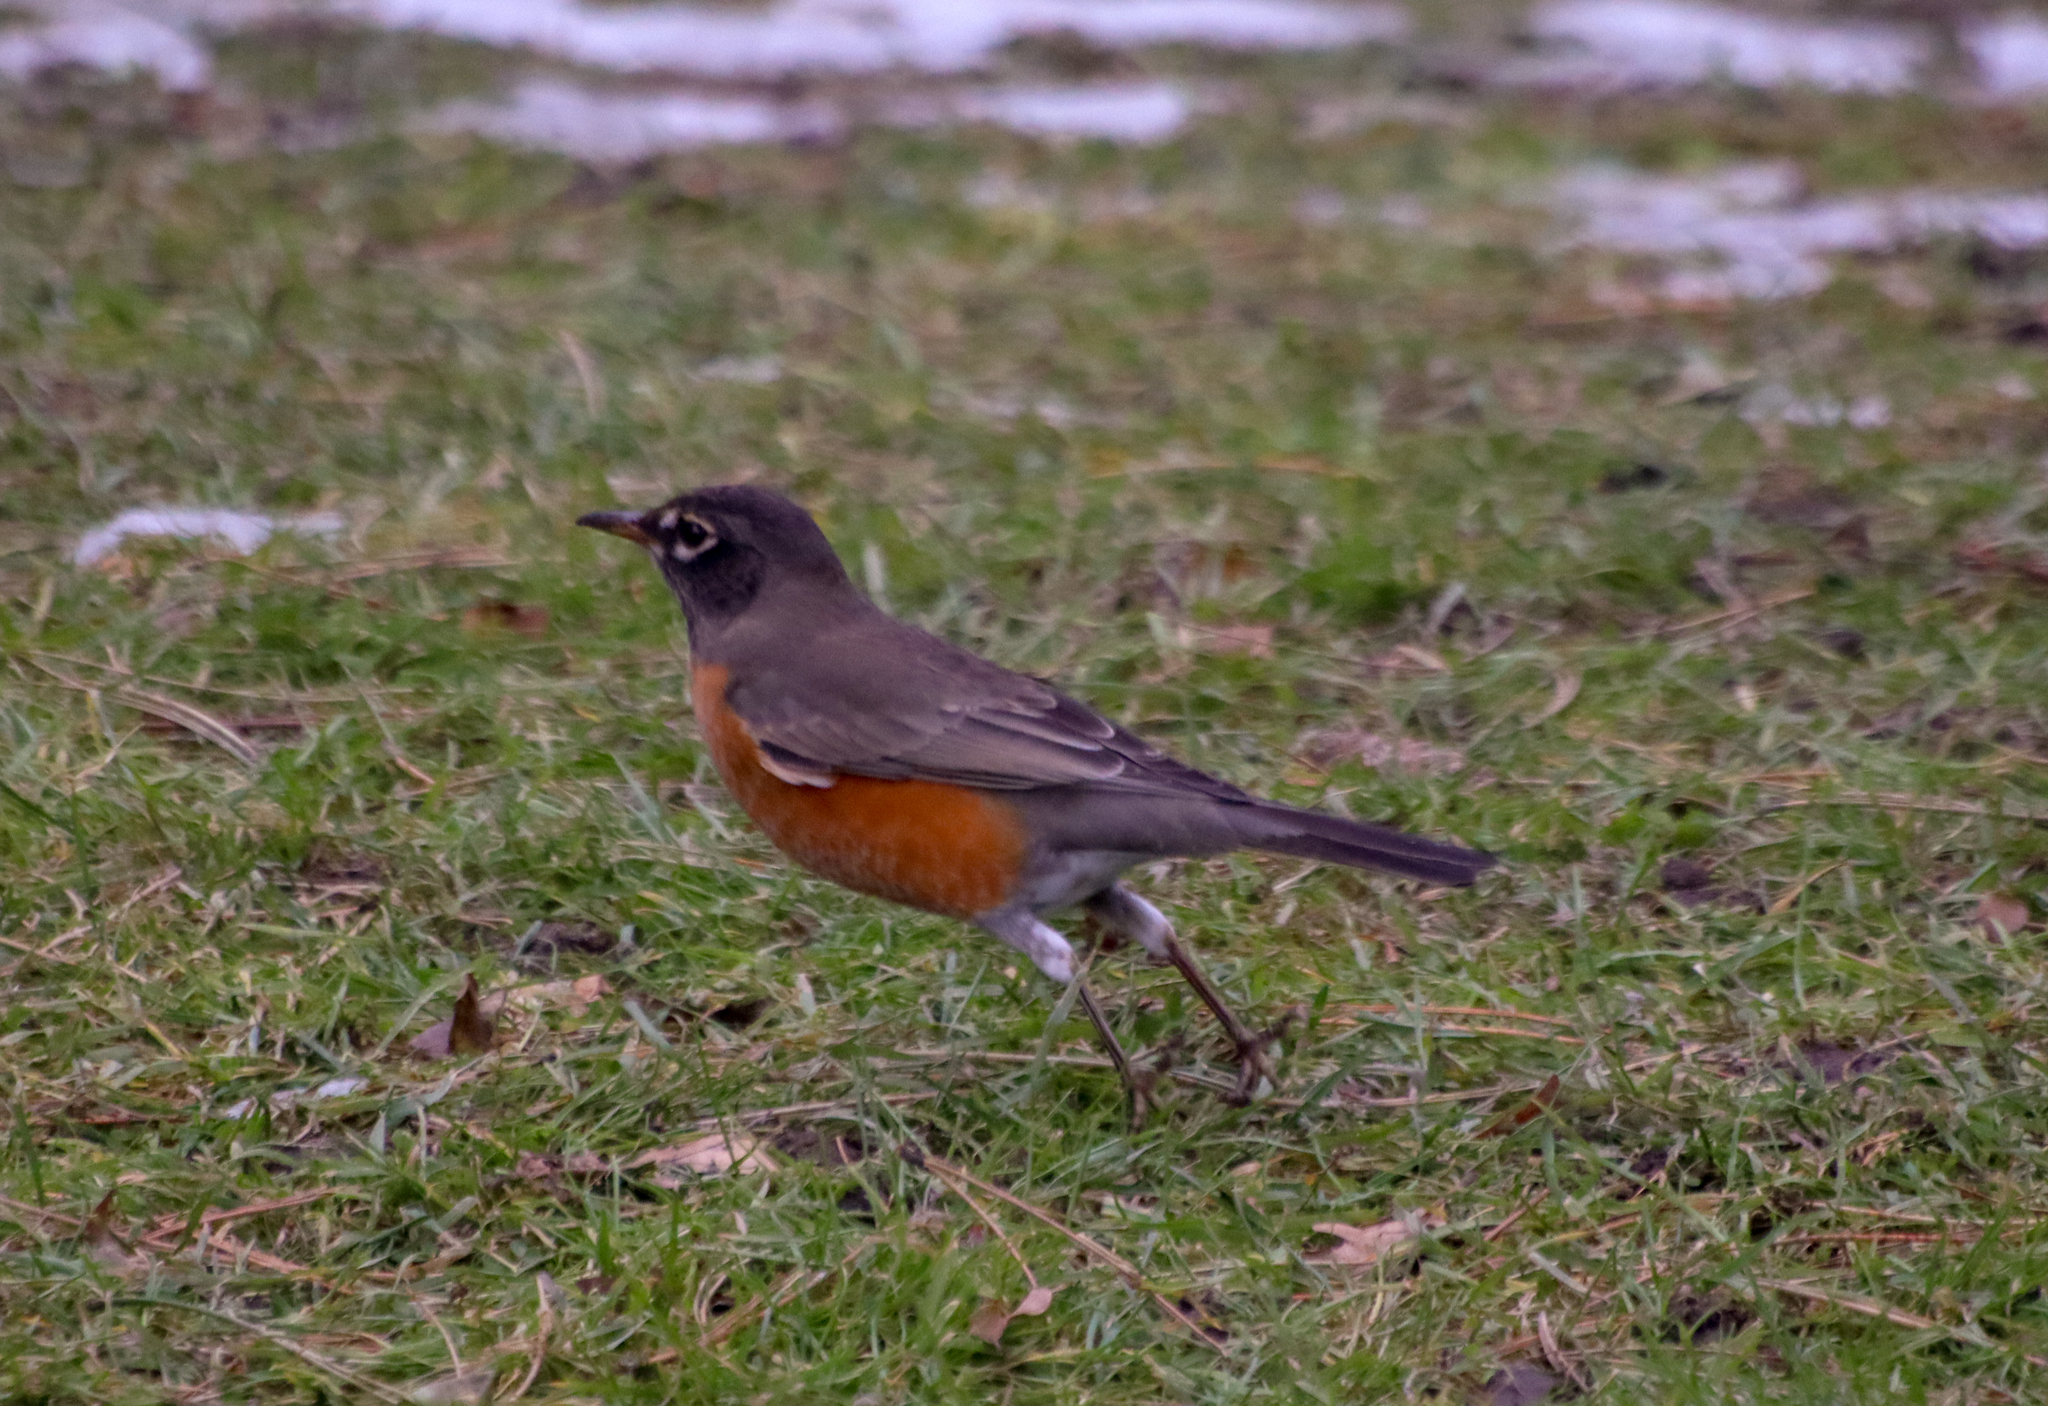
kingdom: Animalia
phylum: Chordata
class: Aves
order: Passeriformes
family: Turdidae
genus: Turdus
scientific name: Turdus migratorius
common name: American robin
